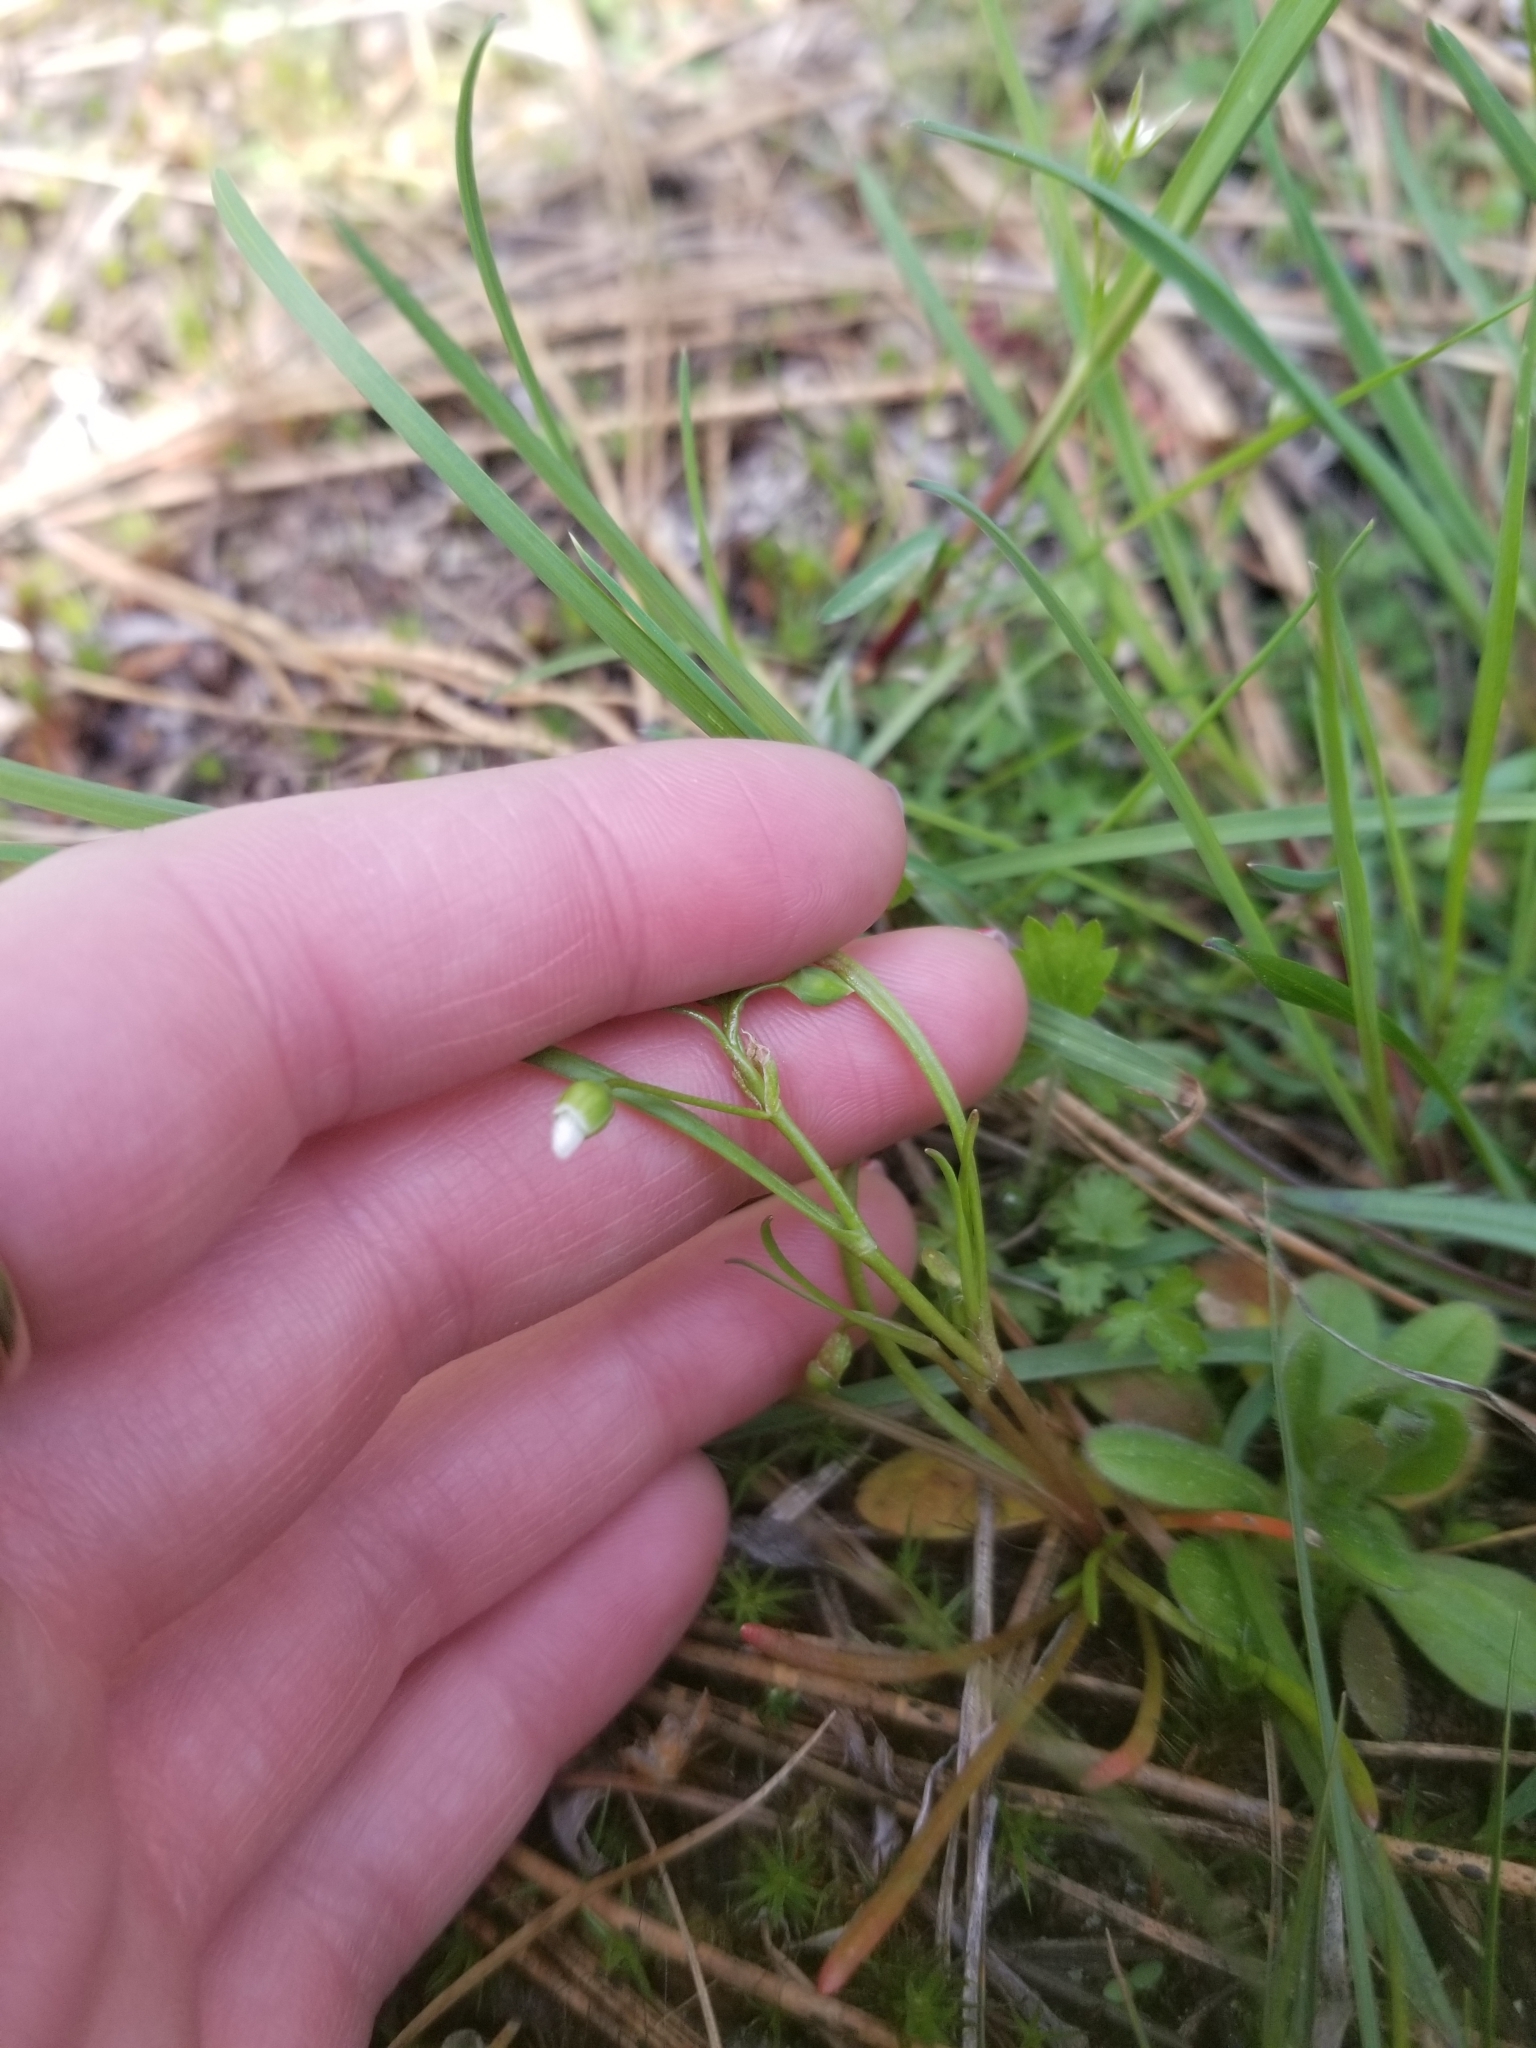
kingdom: Plantae
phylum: Tracheophyta
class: Magnoliopsida
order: Caryophyllales
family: Montiaceae
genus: Montia
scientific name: Montia linearis
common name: Narrow-leaf montia
